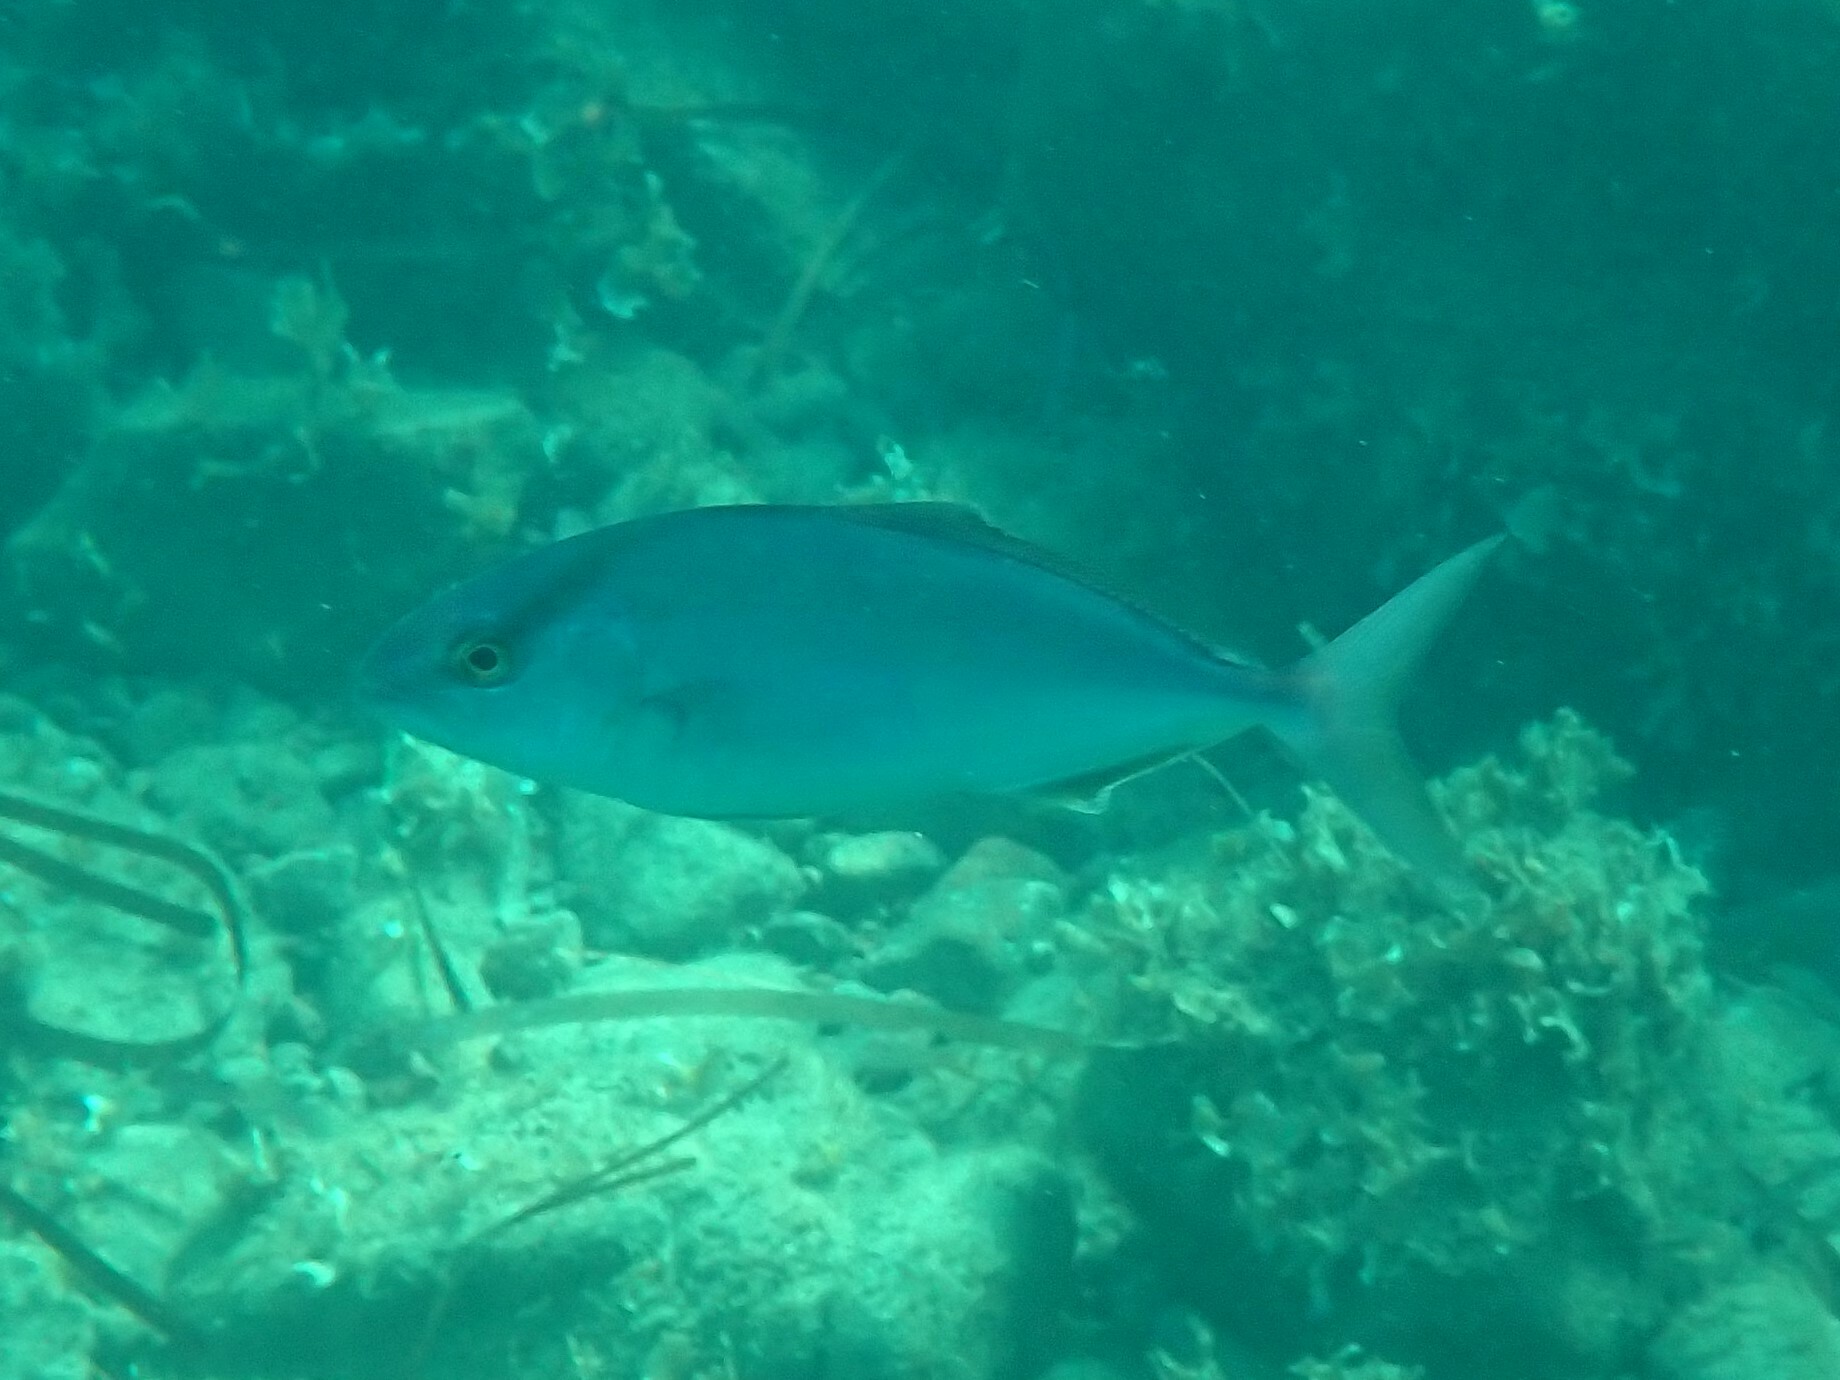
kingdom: Animalia
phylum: Chordata
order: Perciformes
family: Carangidae
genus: Seriola
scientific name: Seriola dumerili
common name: Greater amberjack
